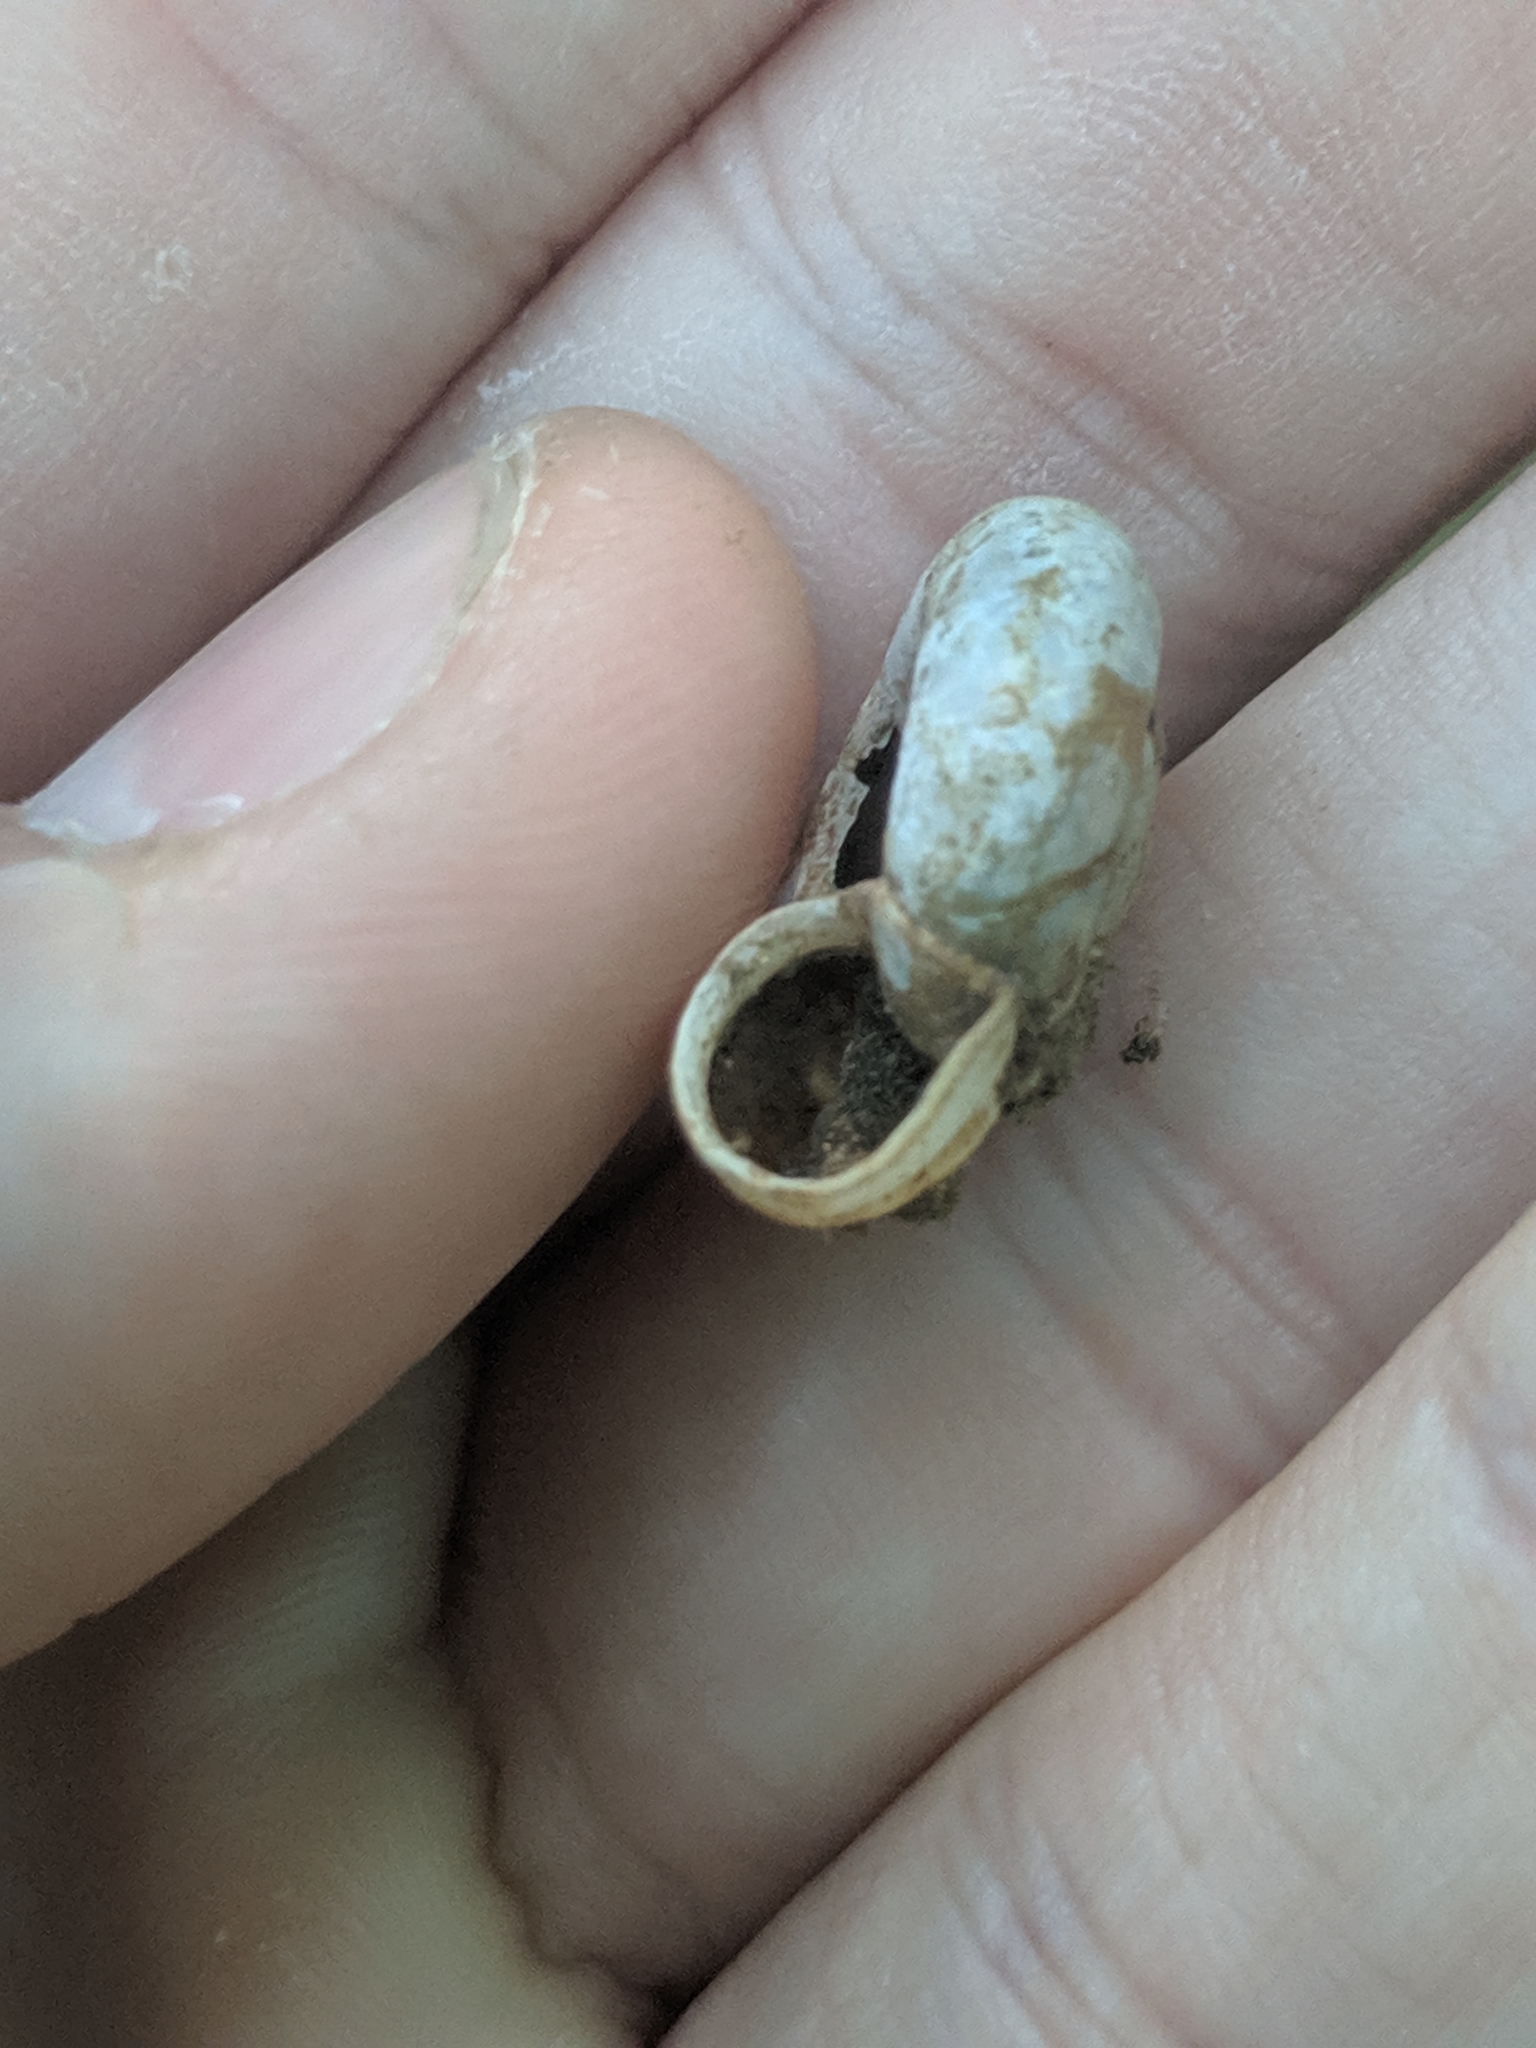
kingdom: Animalia
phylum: Mollusca
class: Gastropoda
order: Stylommatophora
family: Haplotrematidae
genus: Haplotrema
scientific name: Haplotrema concavum
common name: Gray-foot lancetooth
